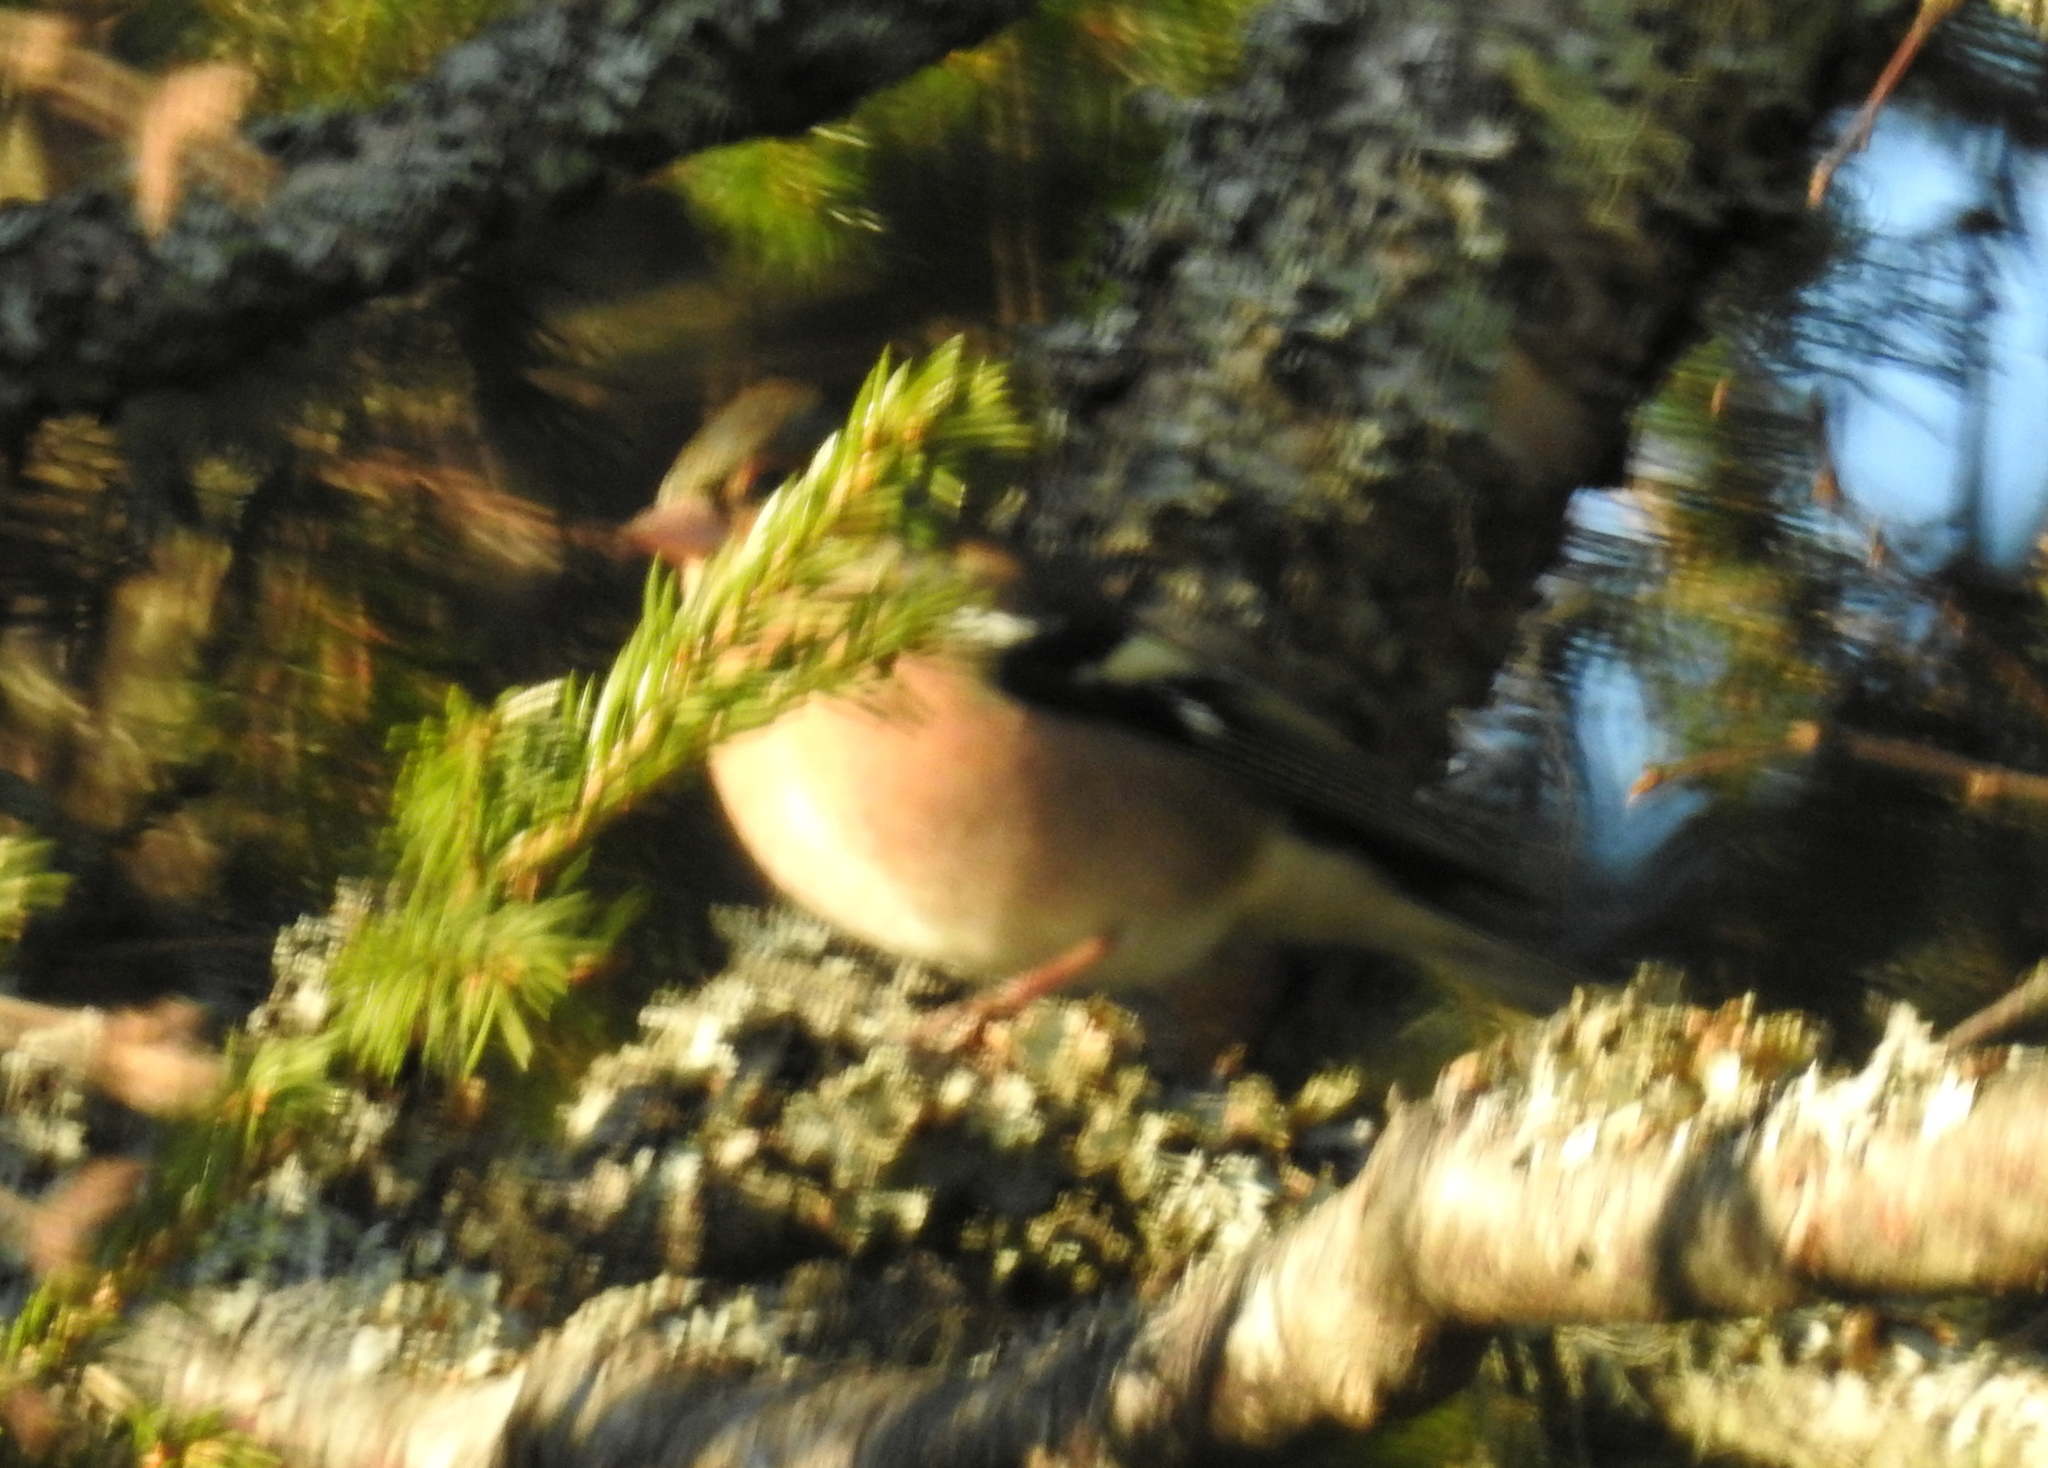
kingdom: Animalia
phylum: Chordata
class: Aves
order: Passeriformes
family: Fringillidae
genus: Fringilla
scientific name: Fringilla coelebs
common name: Common chaffinch
